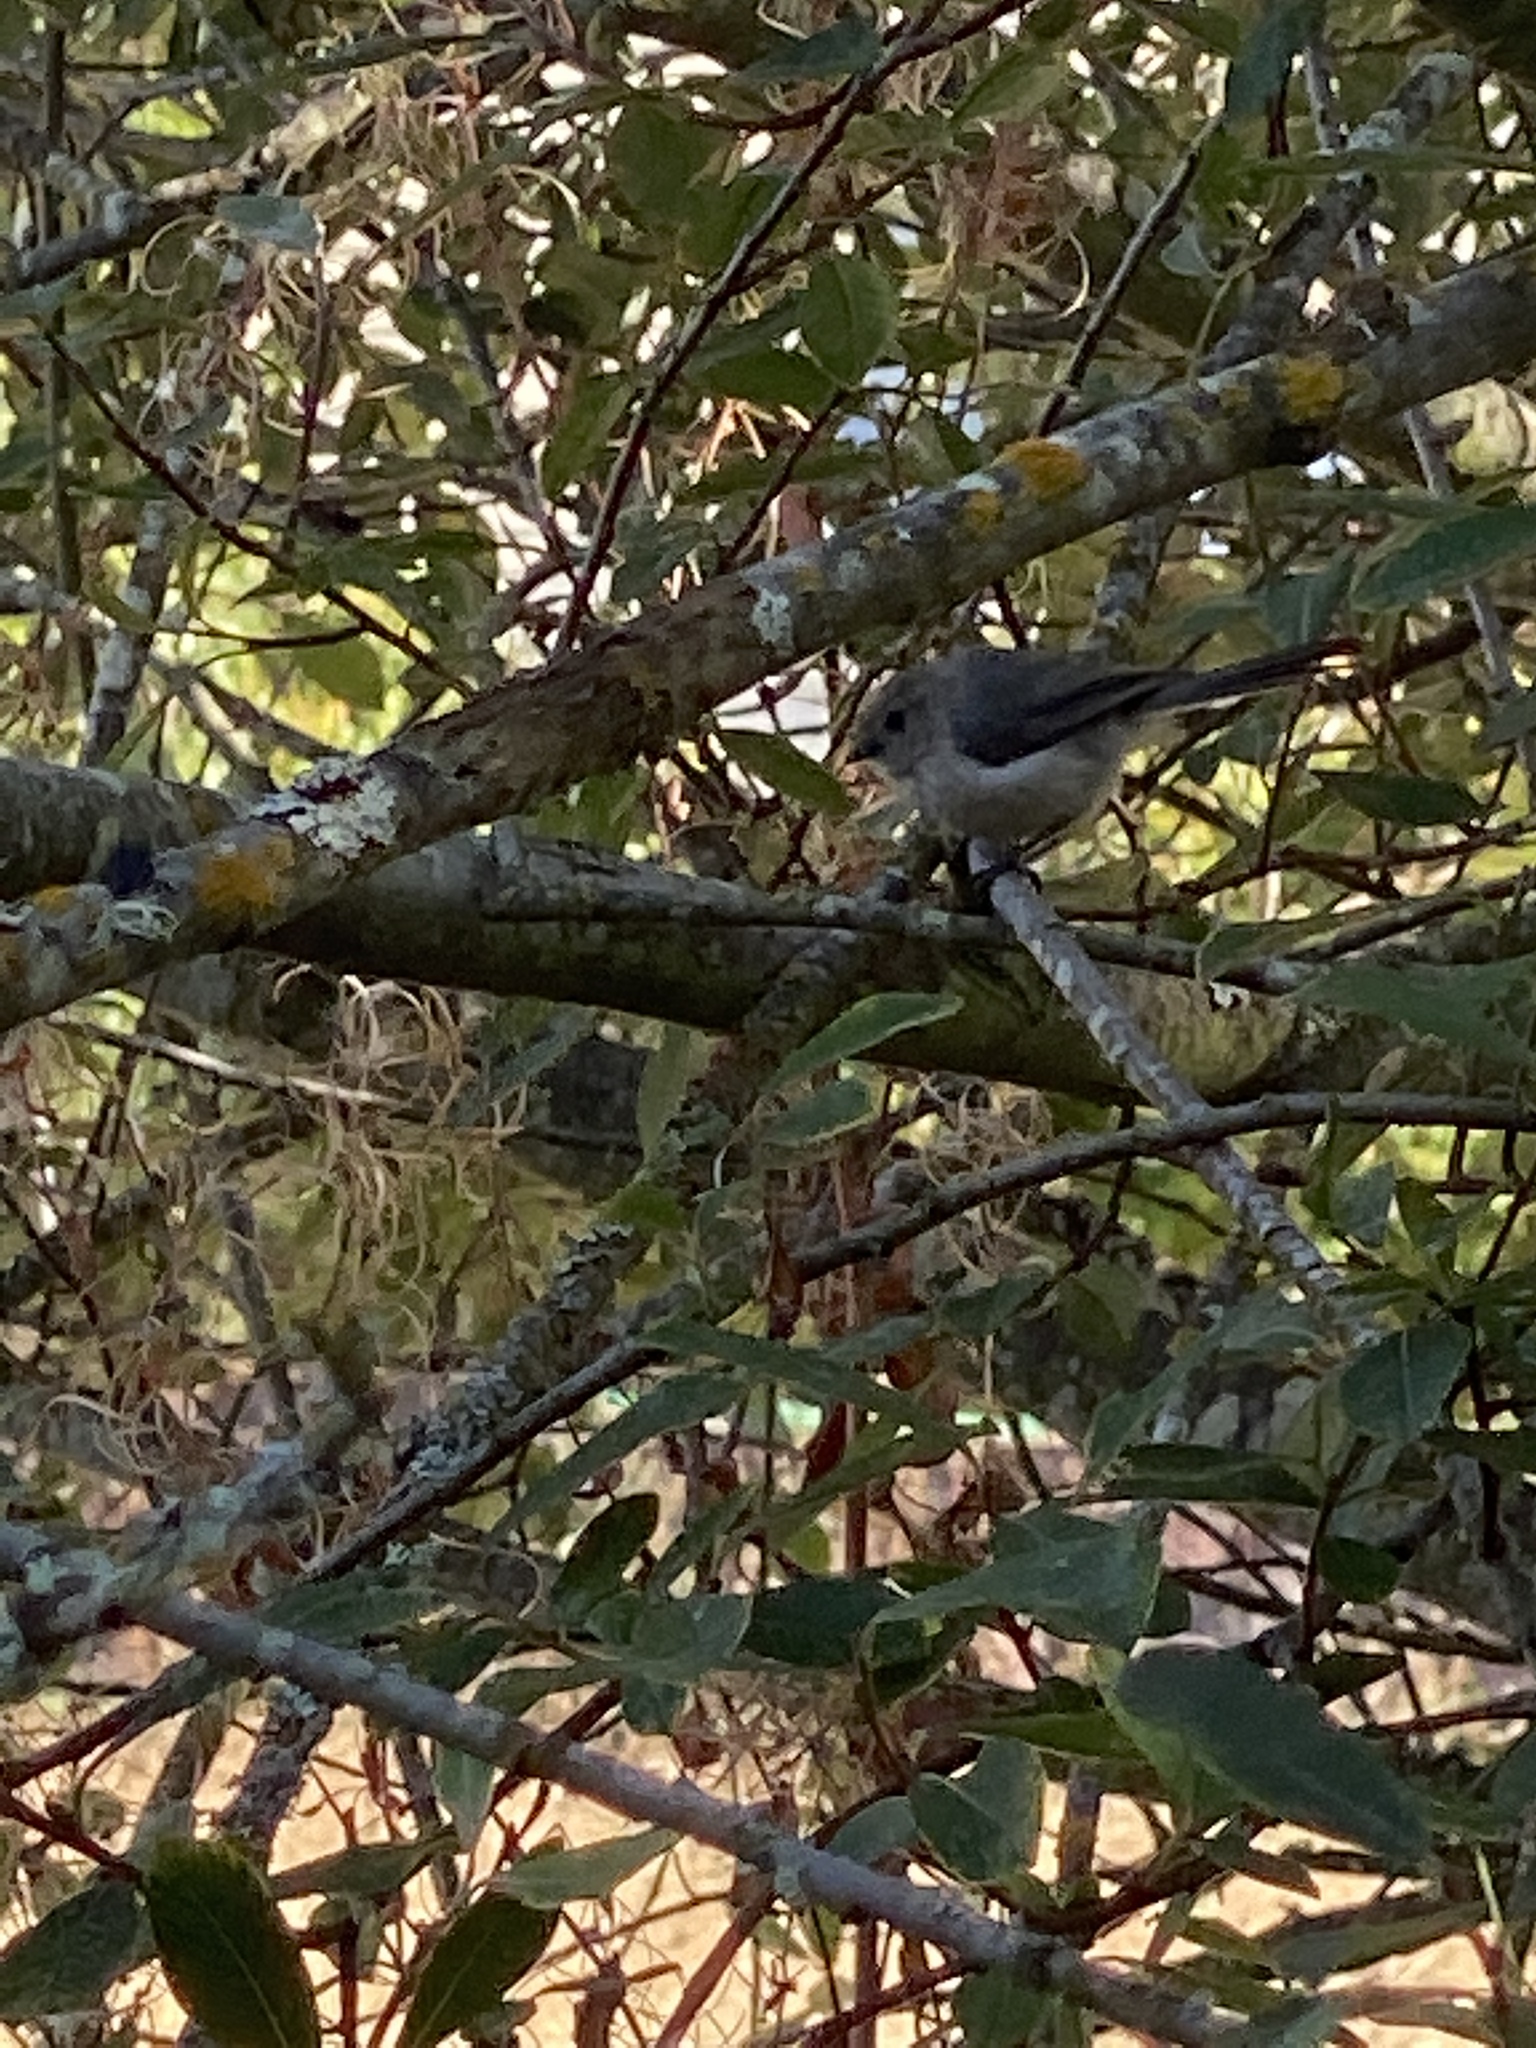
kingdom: Animalia
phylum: Chordata
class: Aves
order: Passeriformes
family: Aegithalidae
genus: Psaltriparus
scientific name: Psaltriparus minimus
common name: American bushtit
